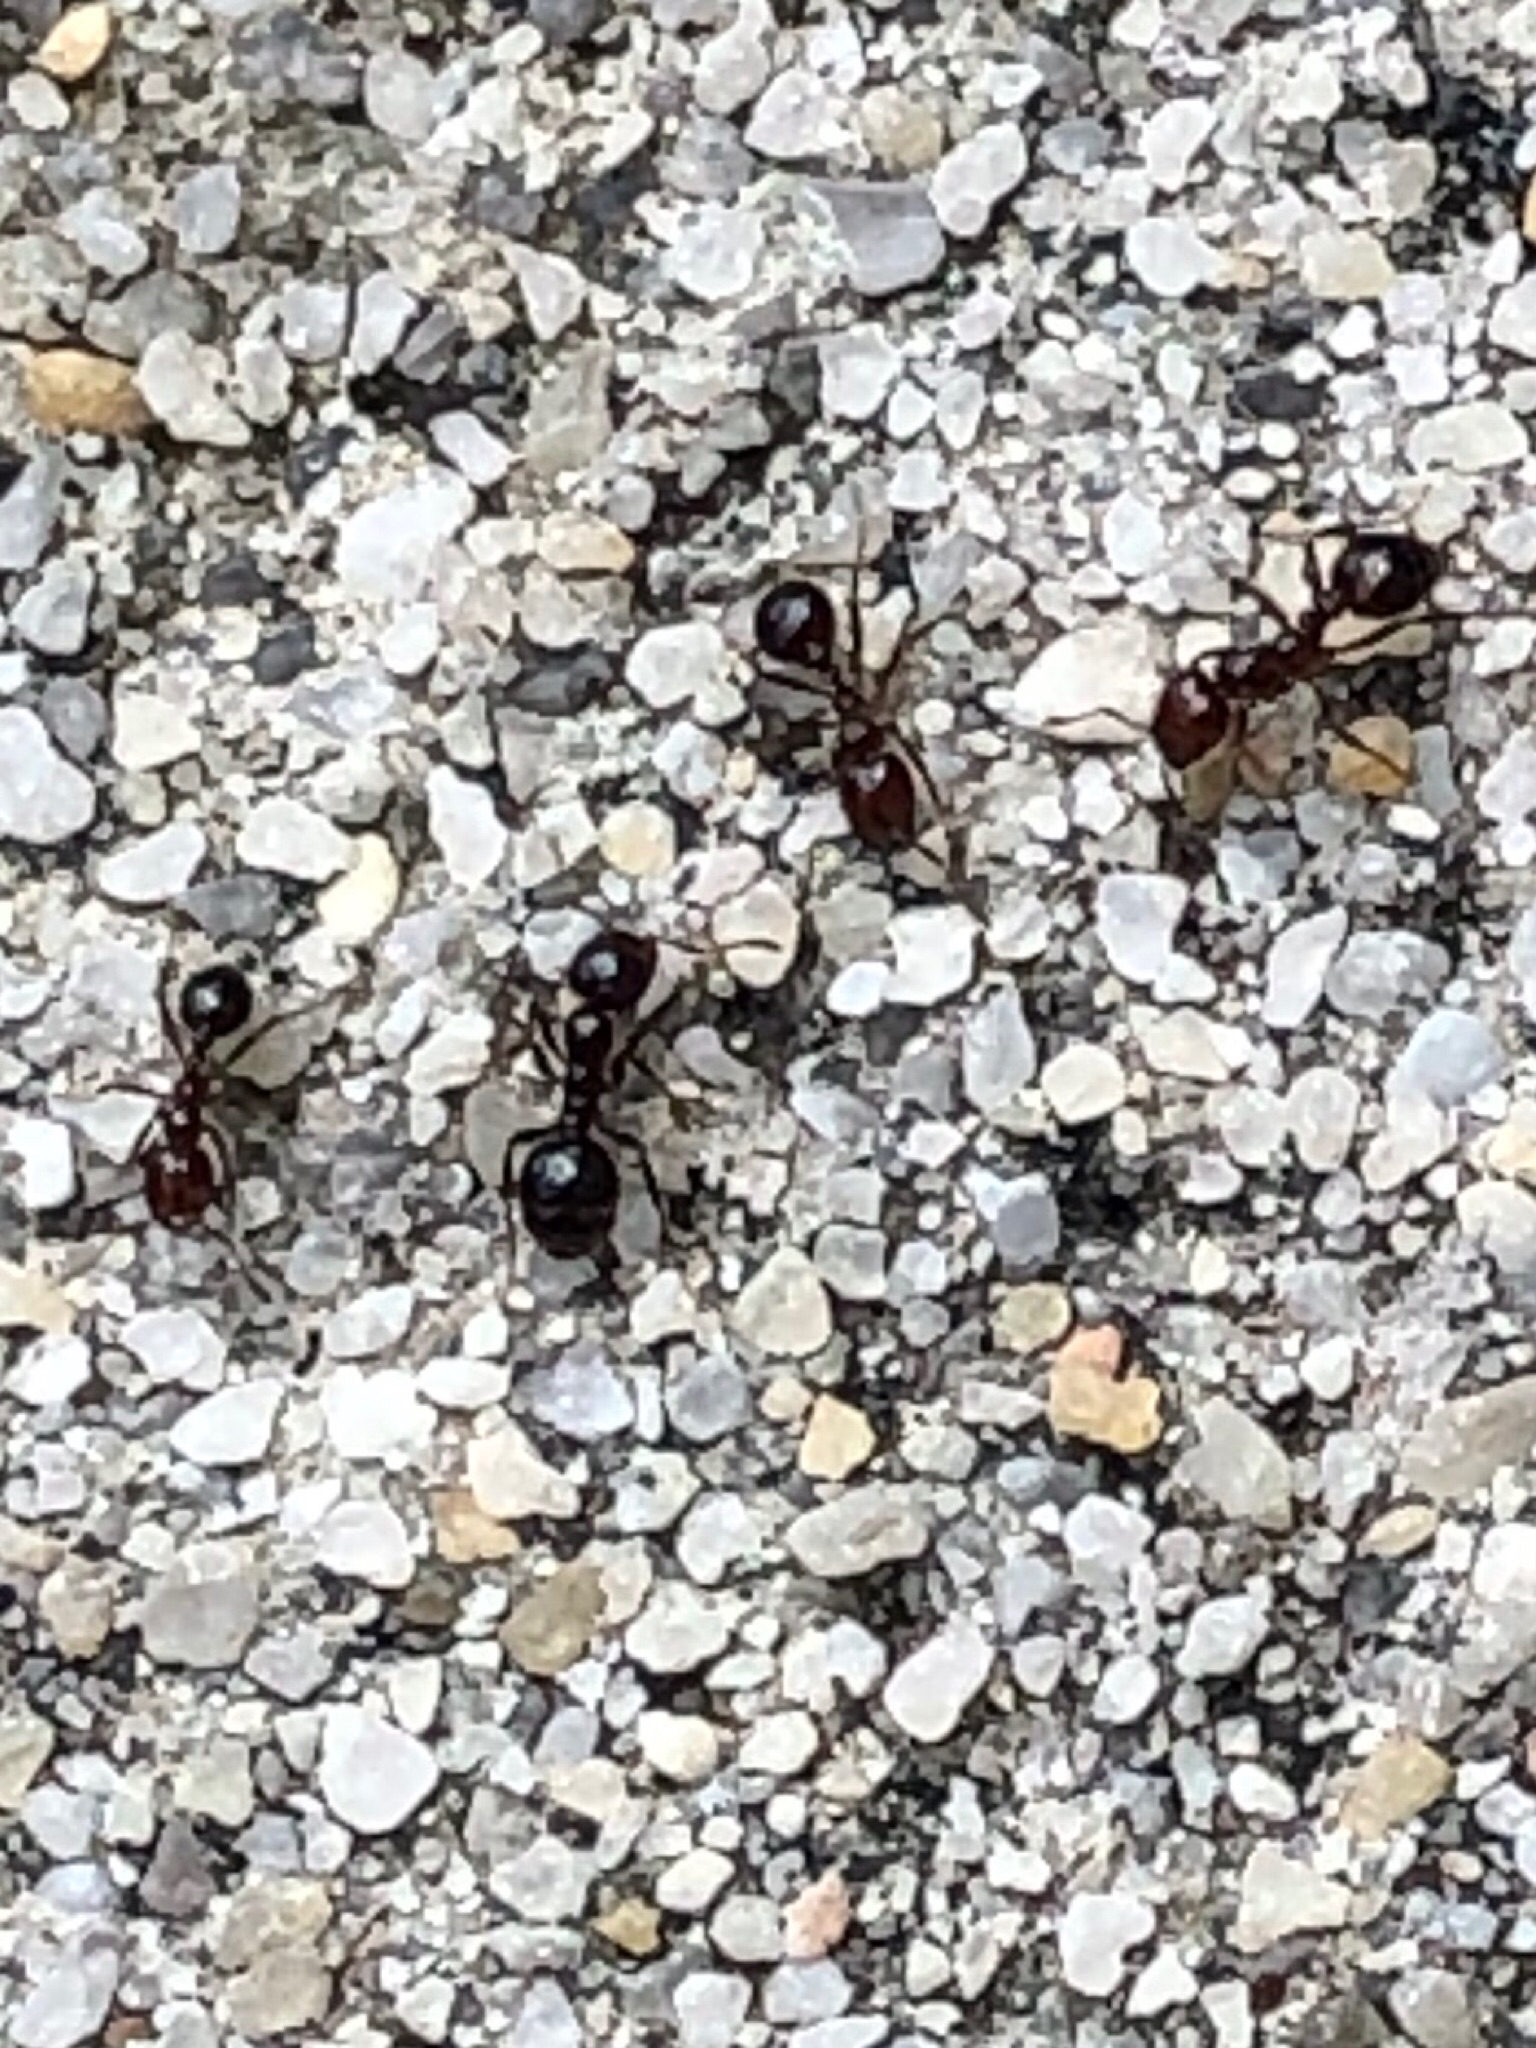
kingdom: Animalia
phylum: Arthropoda
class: Insecta
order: Hymenoptera
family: Formicidae
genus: Solenopsis
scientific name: Solenopsis invicta
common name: Red imported fire ant
